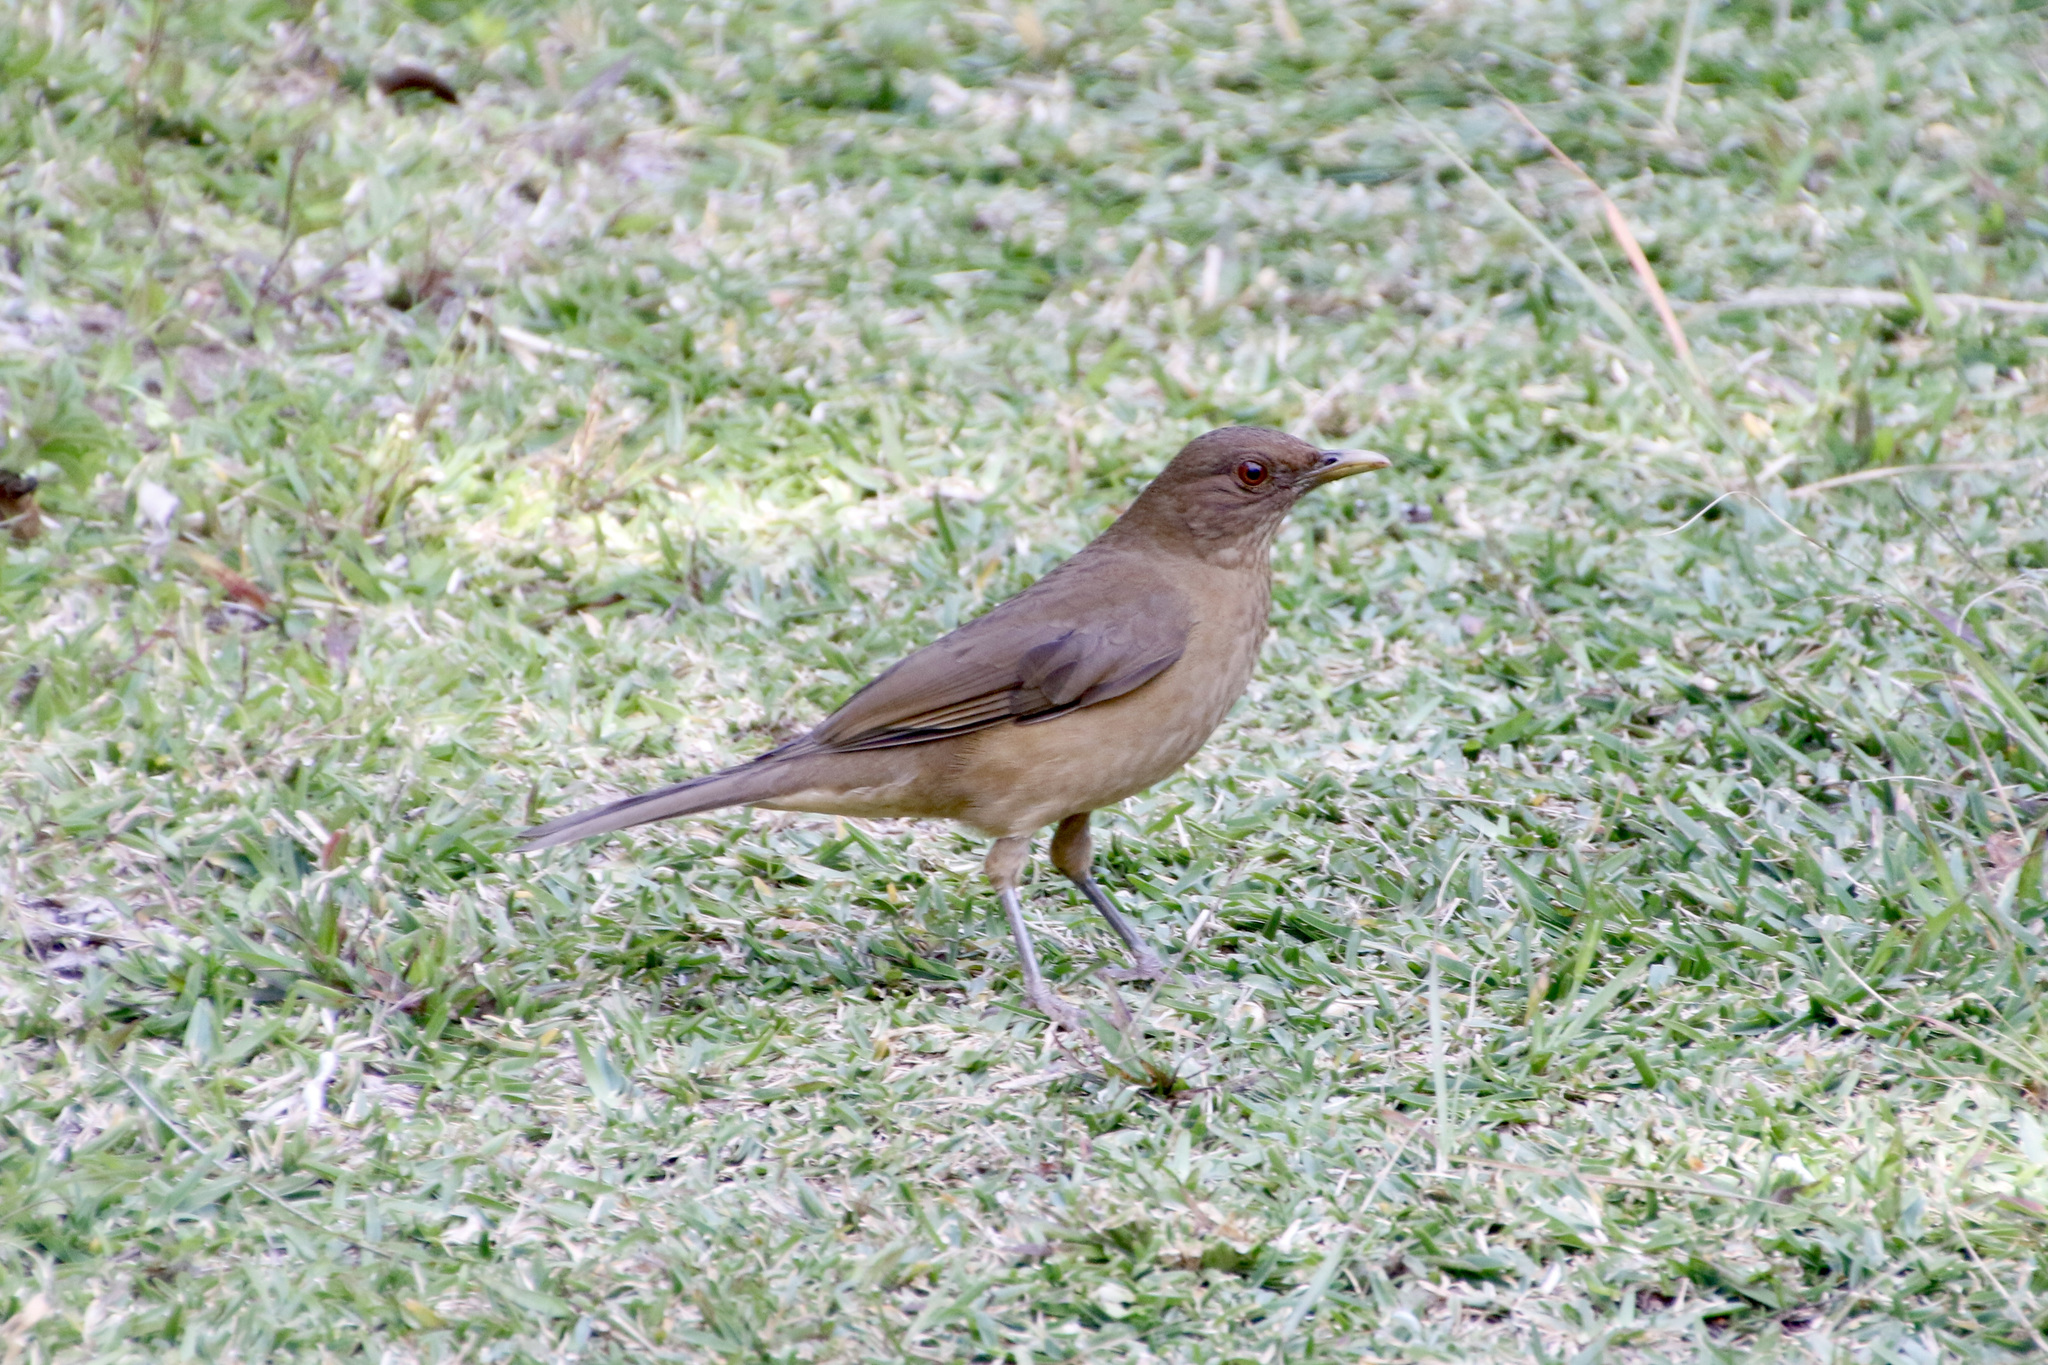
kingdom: Animalia
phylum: Chordata
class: Aves
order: Passeriformes
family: Turdidae
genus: Turdus
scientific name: Turdus grayi
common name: Clay-colored thrush
